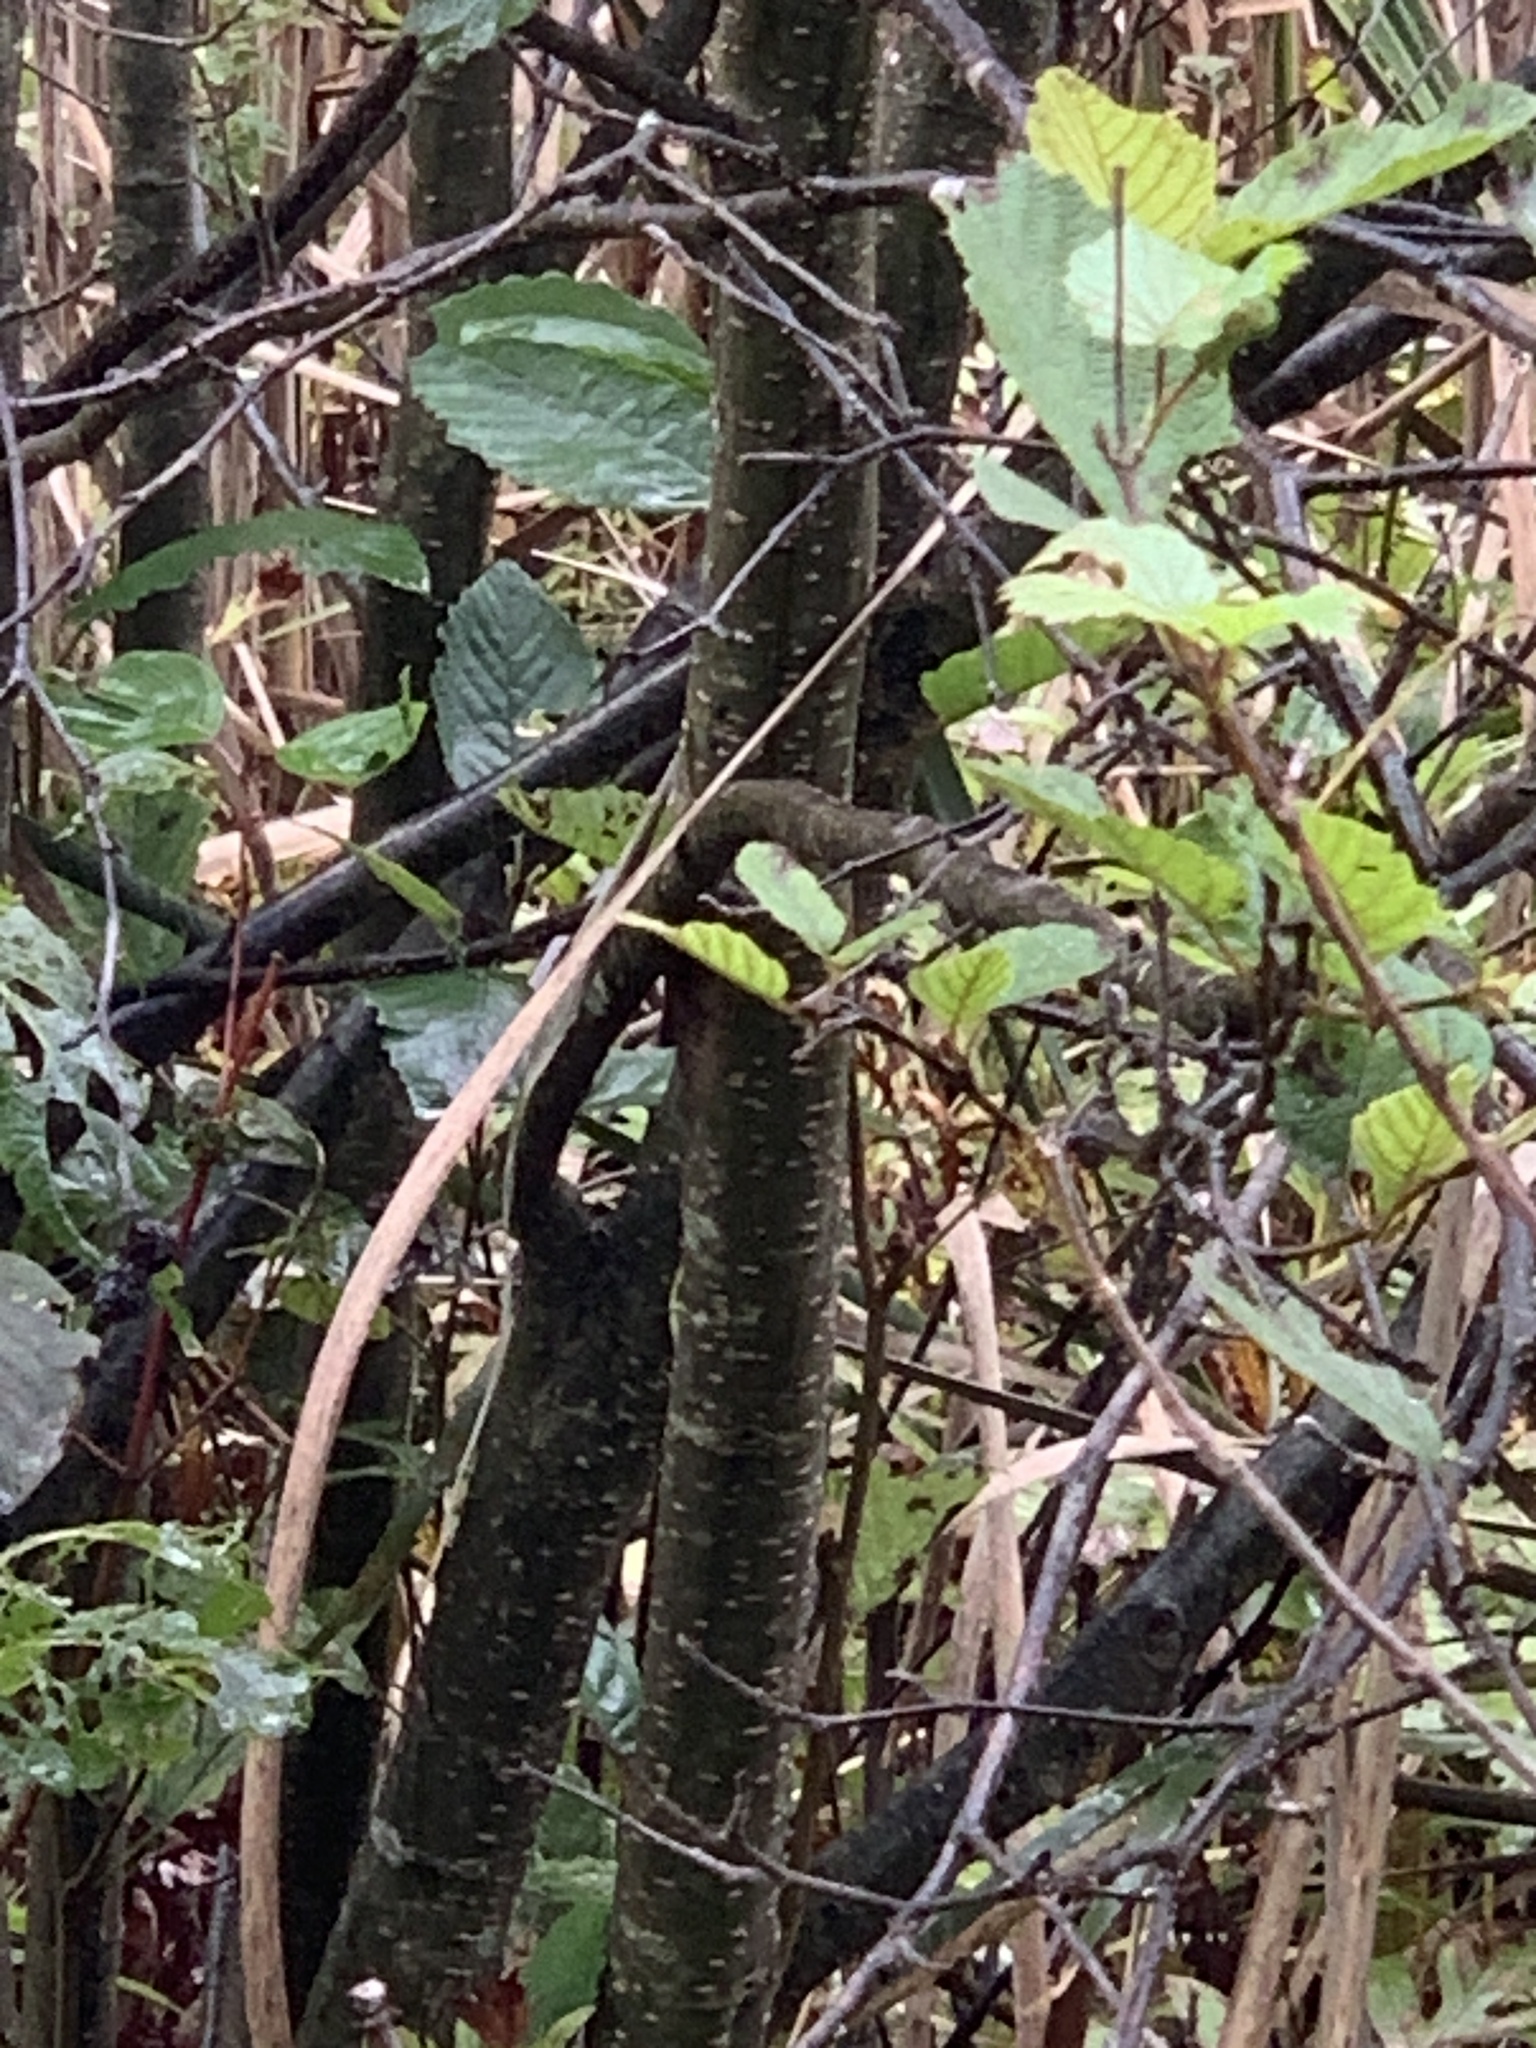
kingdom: Plantae
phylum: Tracheophyta
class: Magnoliopsida
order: Fagales
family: Betulaceae
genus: Alnus
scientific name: Alnus incana
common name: Grey alder
